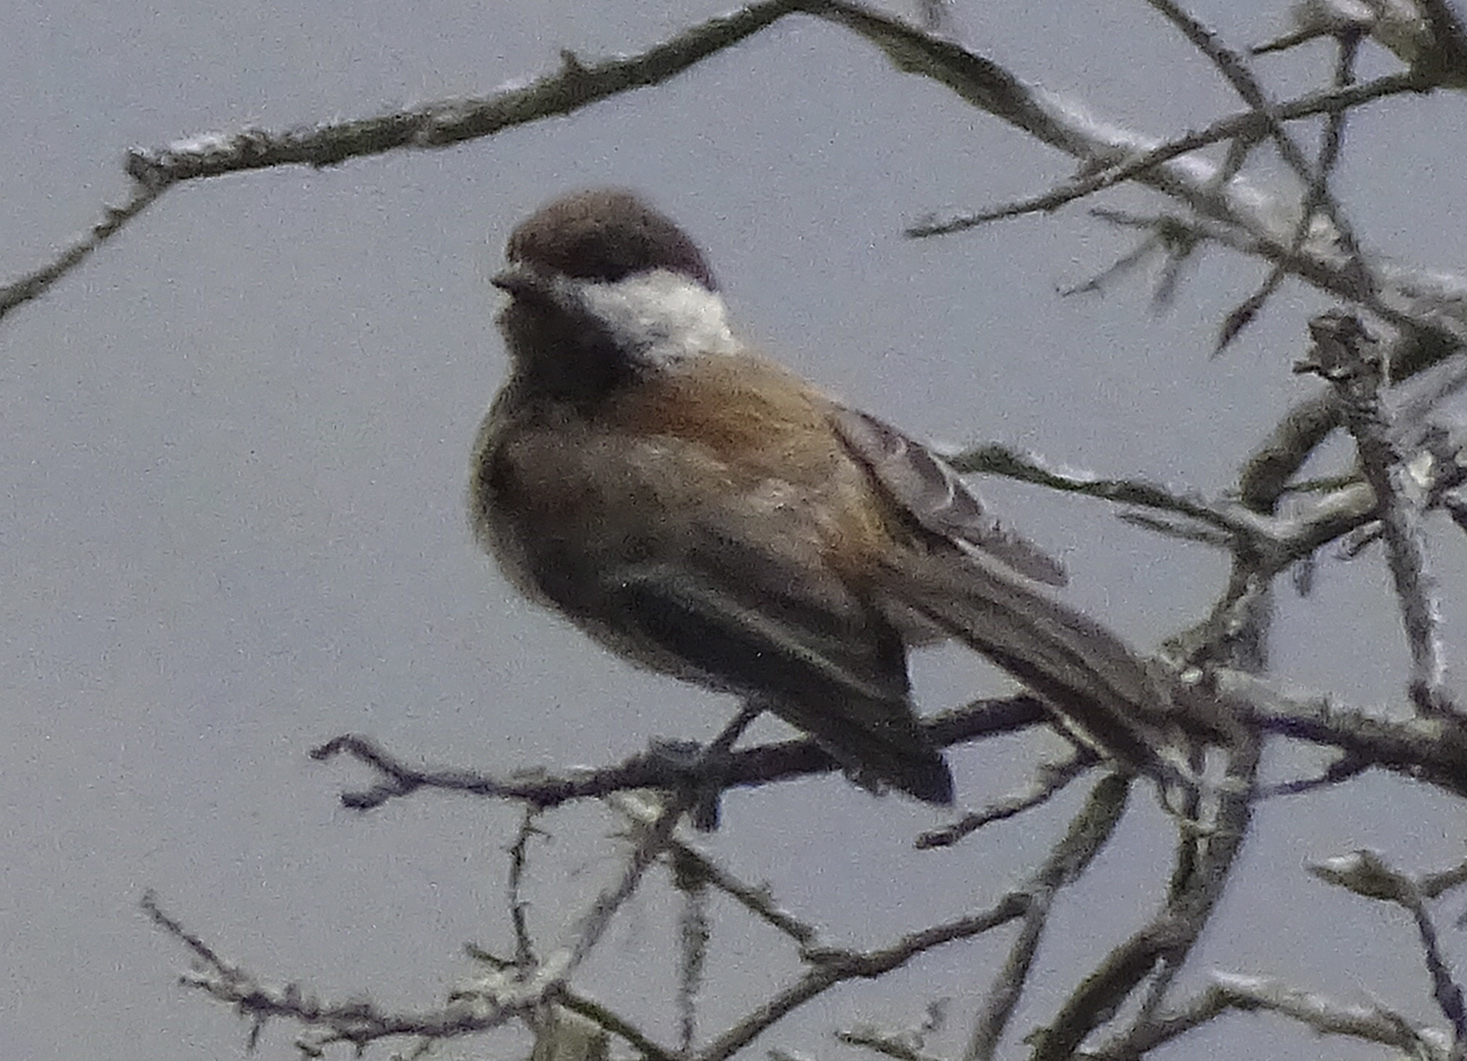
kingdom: Animalia
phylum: Chordata
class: Aves
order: Passeriformes
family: Paridae
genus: Poecile
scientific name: Poecile rufescens
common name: Chestnut-backed chickadee
